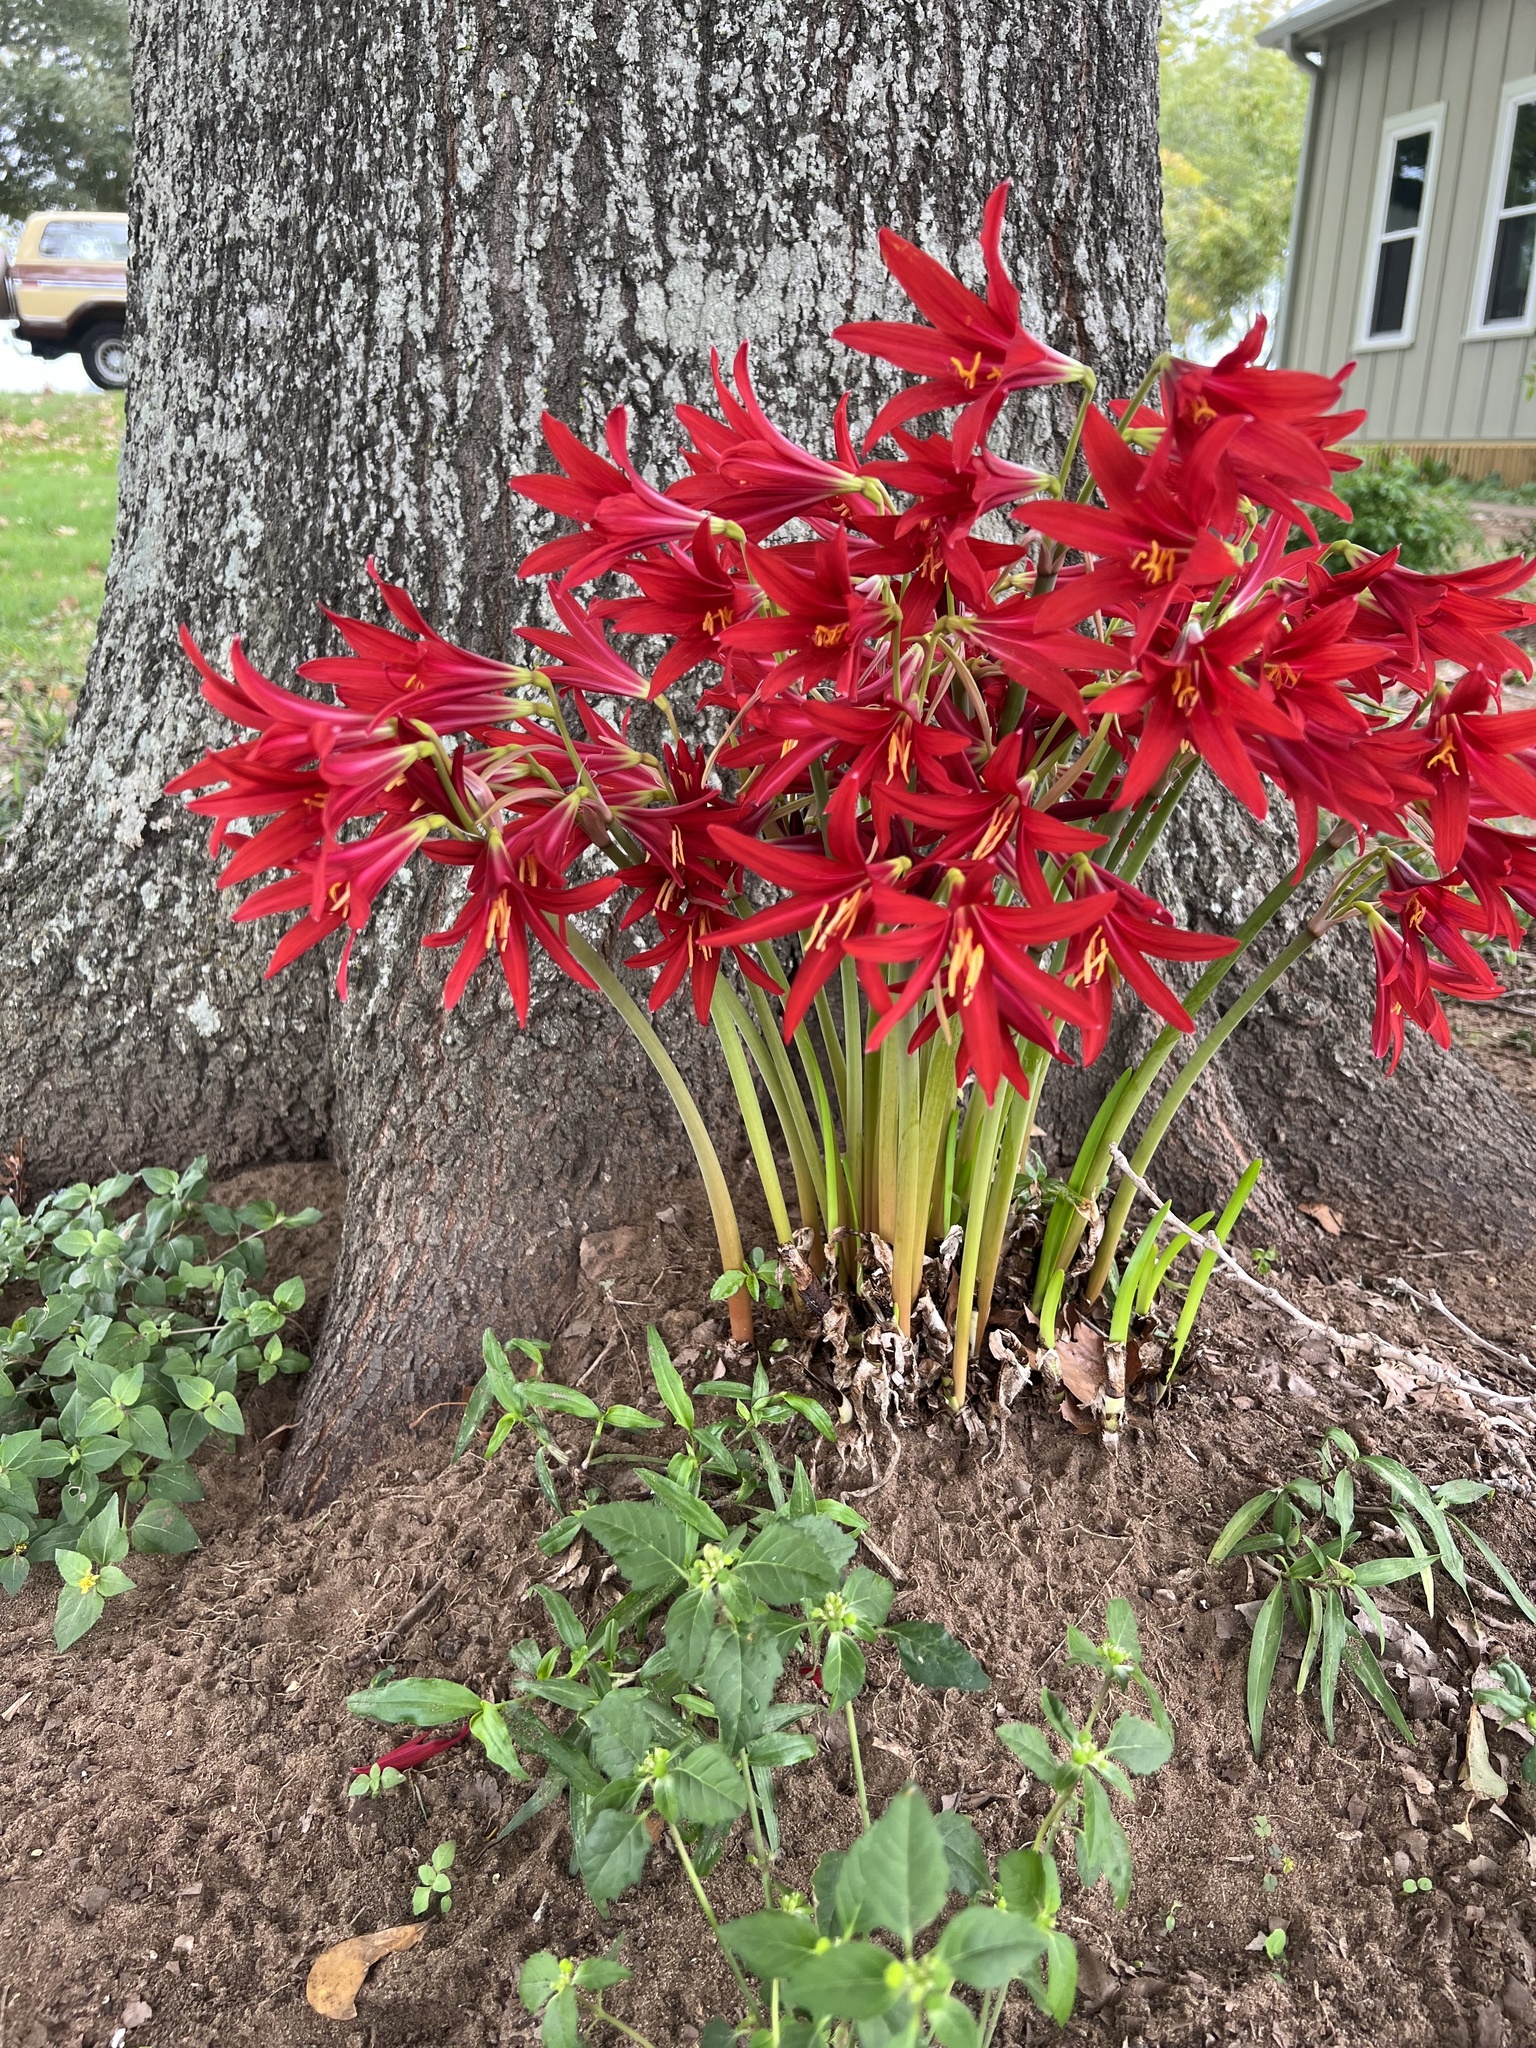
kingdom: Plantae
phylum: Tracheophyta
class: Liliopsida
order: Asparagales
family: Amaryllidaceae
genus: Zephyranthes
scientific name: Zephyranthes bifida
